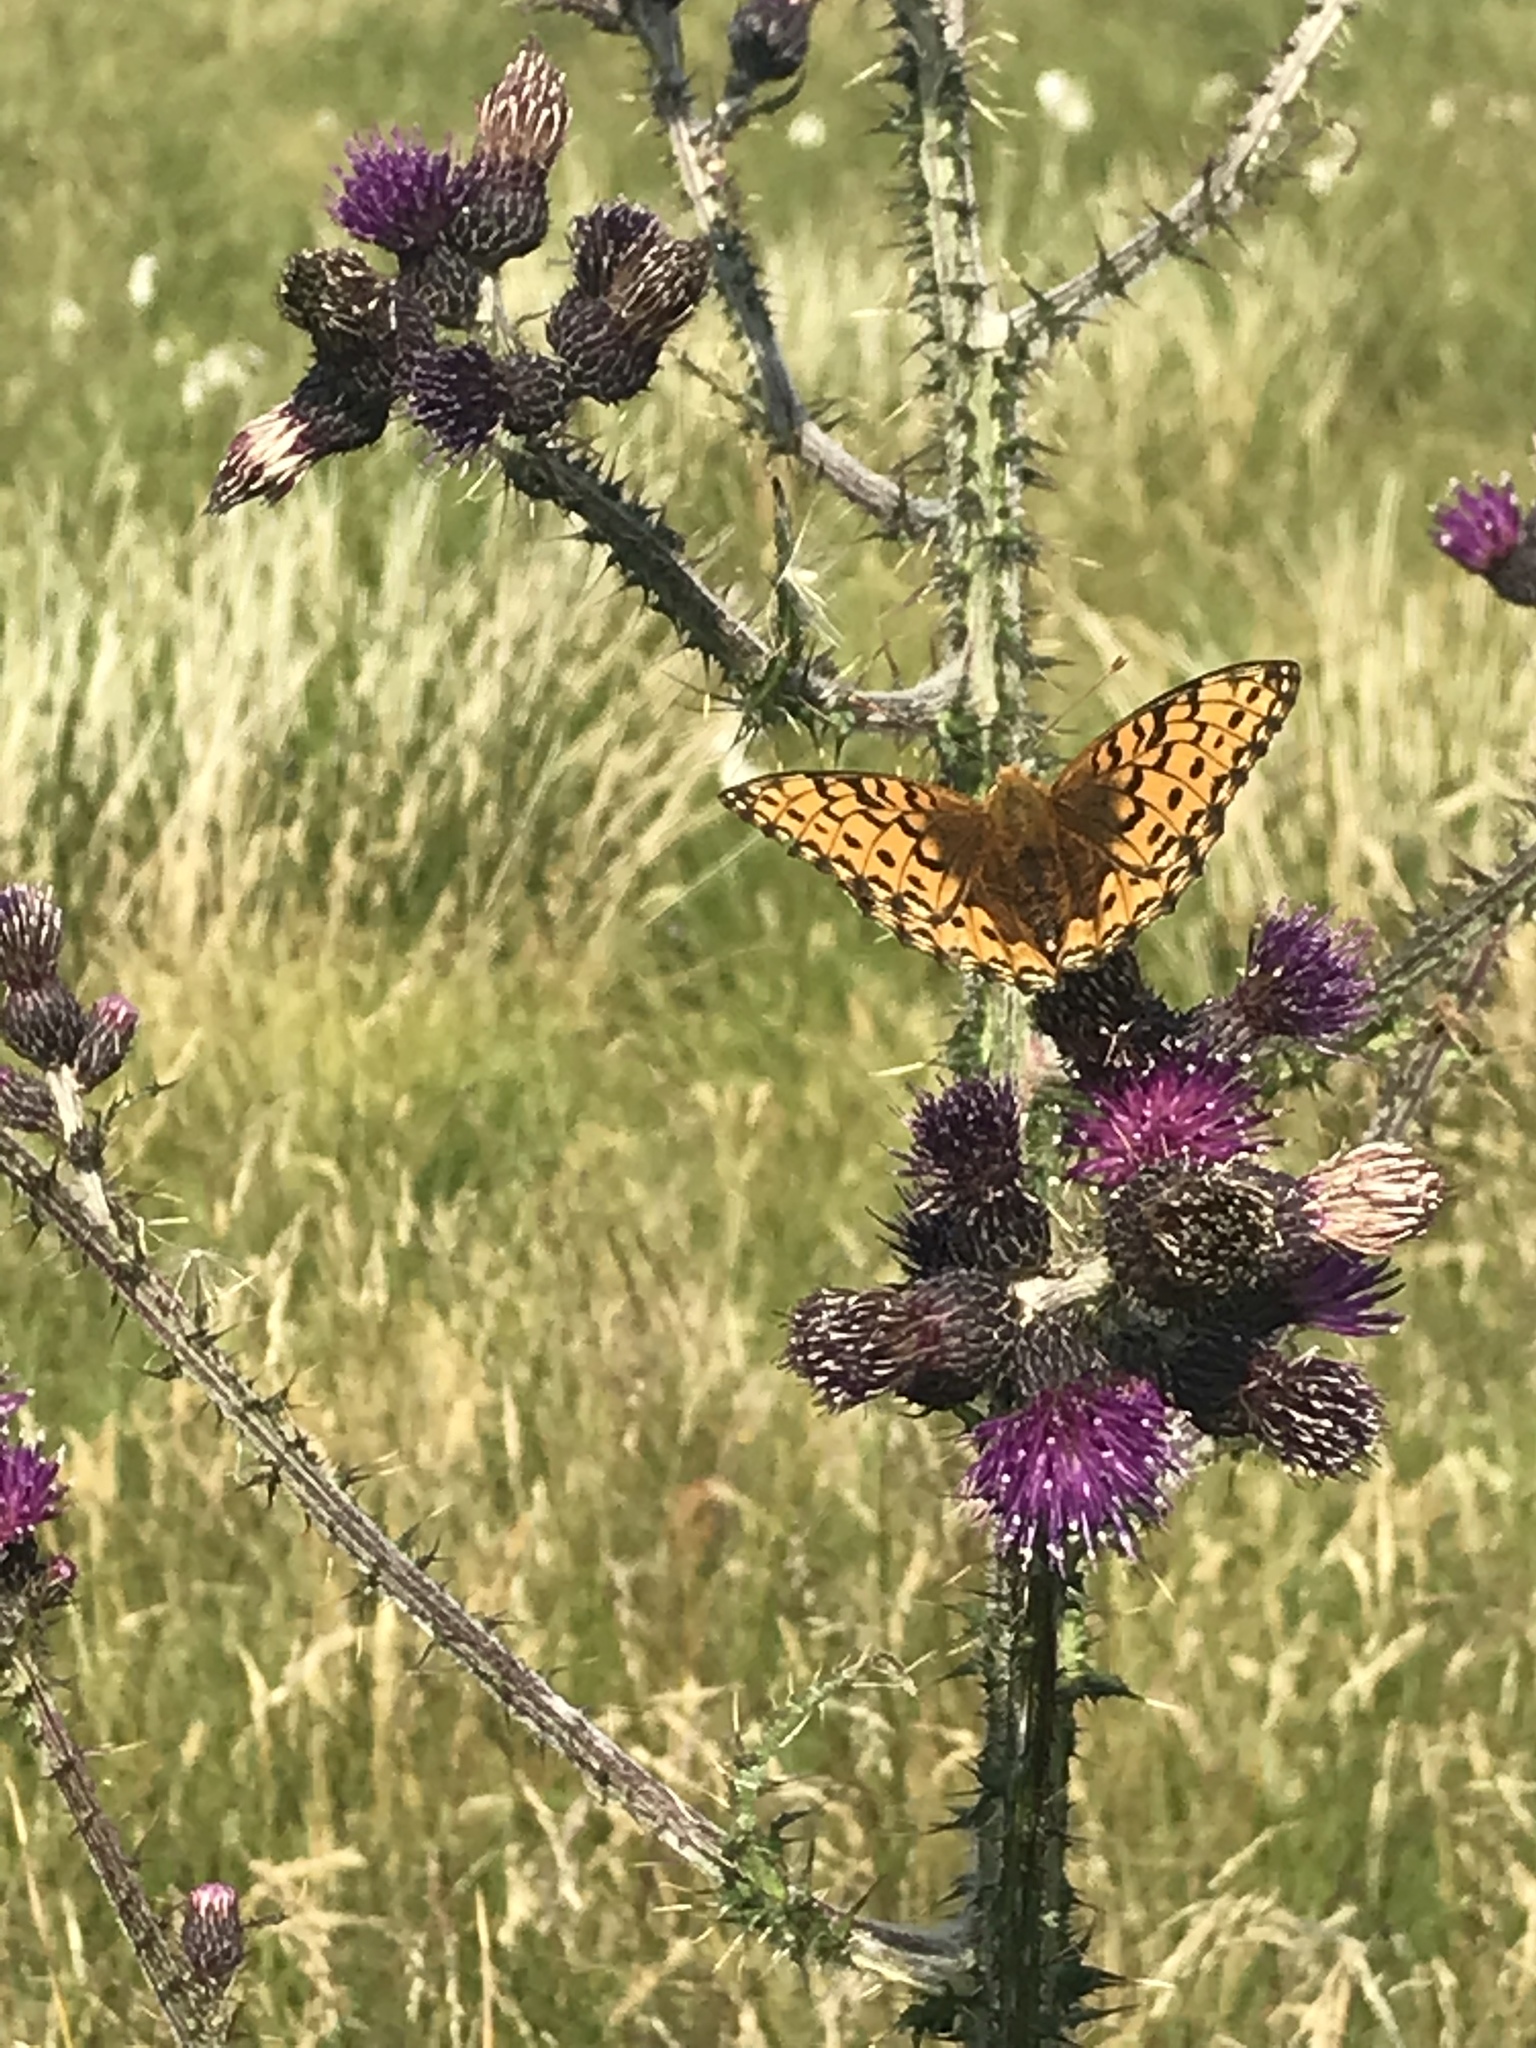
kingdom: Animalia
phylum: Arthropoda
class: Insecta
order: Lepidoptera
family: Nymphalidae
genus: Speyeria
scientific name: Speyeria aglaja
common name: Dark green fritillary
